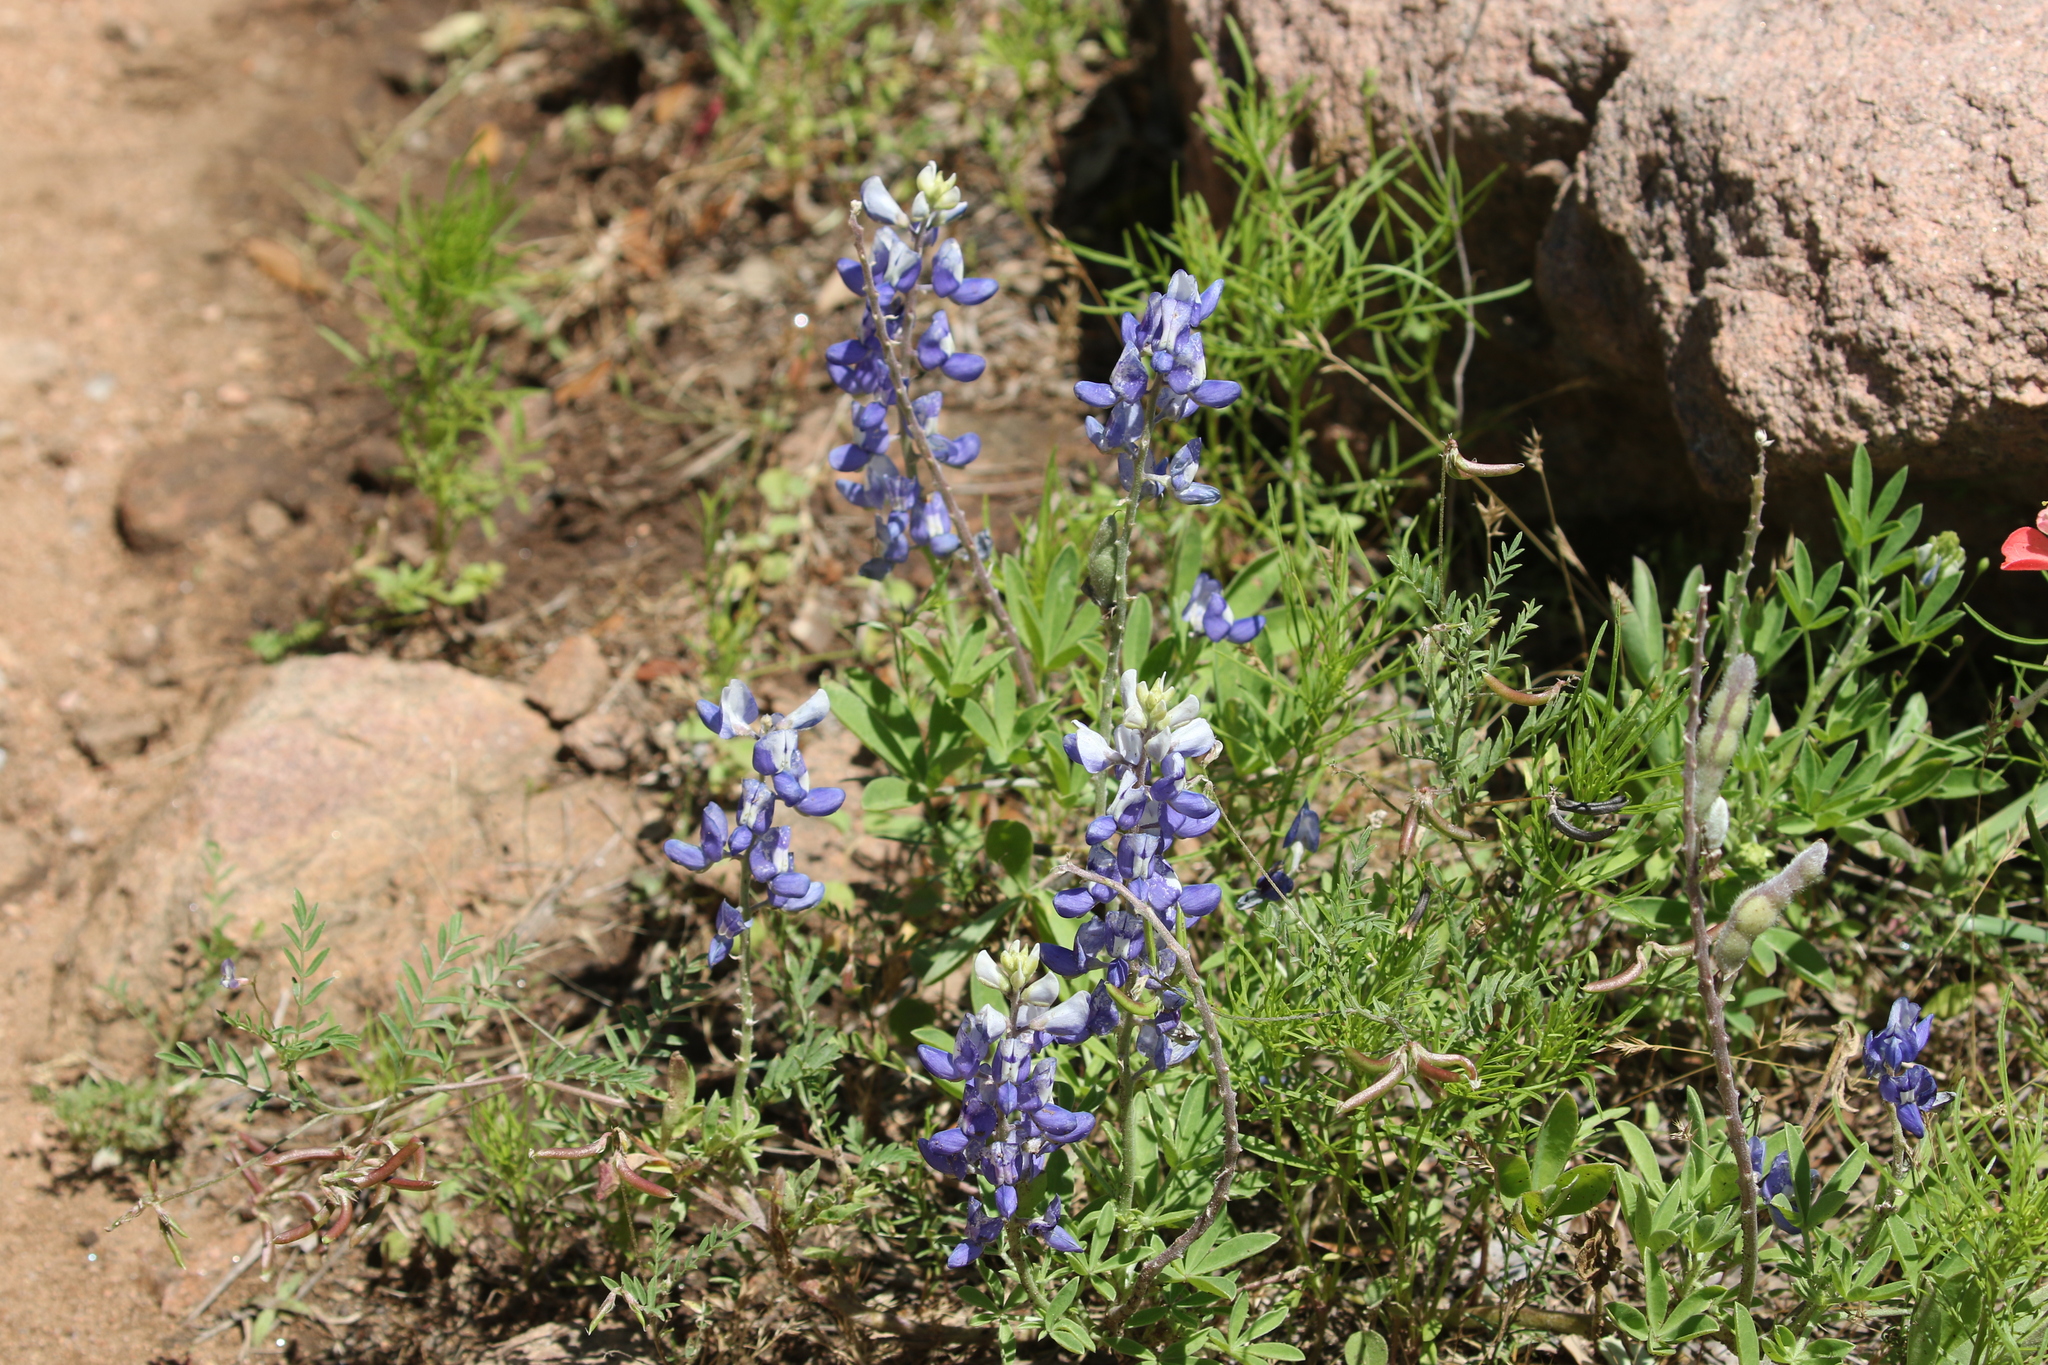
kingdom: Plantae
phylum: Tracheophyta
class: Magnoliopsida
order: Fabales
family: Fabaceae
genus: Lupinus
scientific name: Lupinus texensis
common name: Texas bluebonnet
